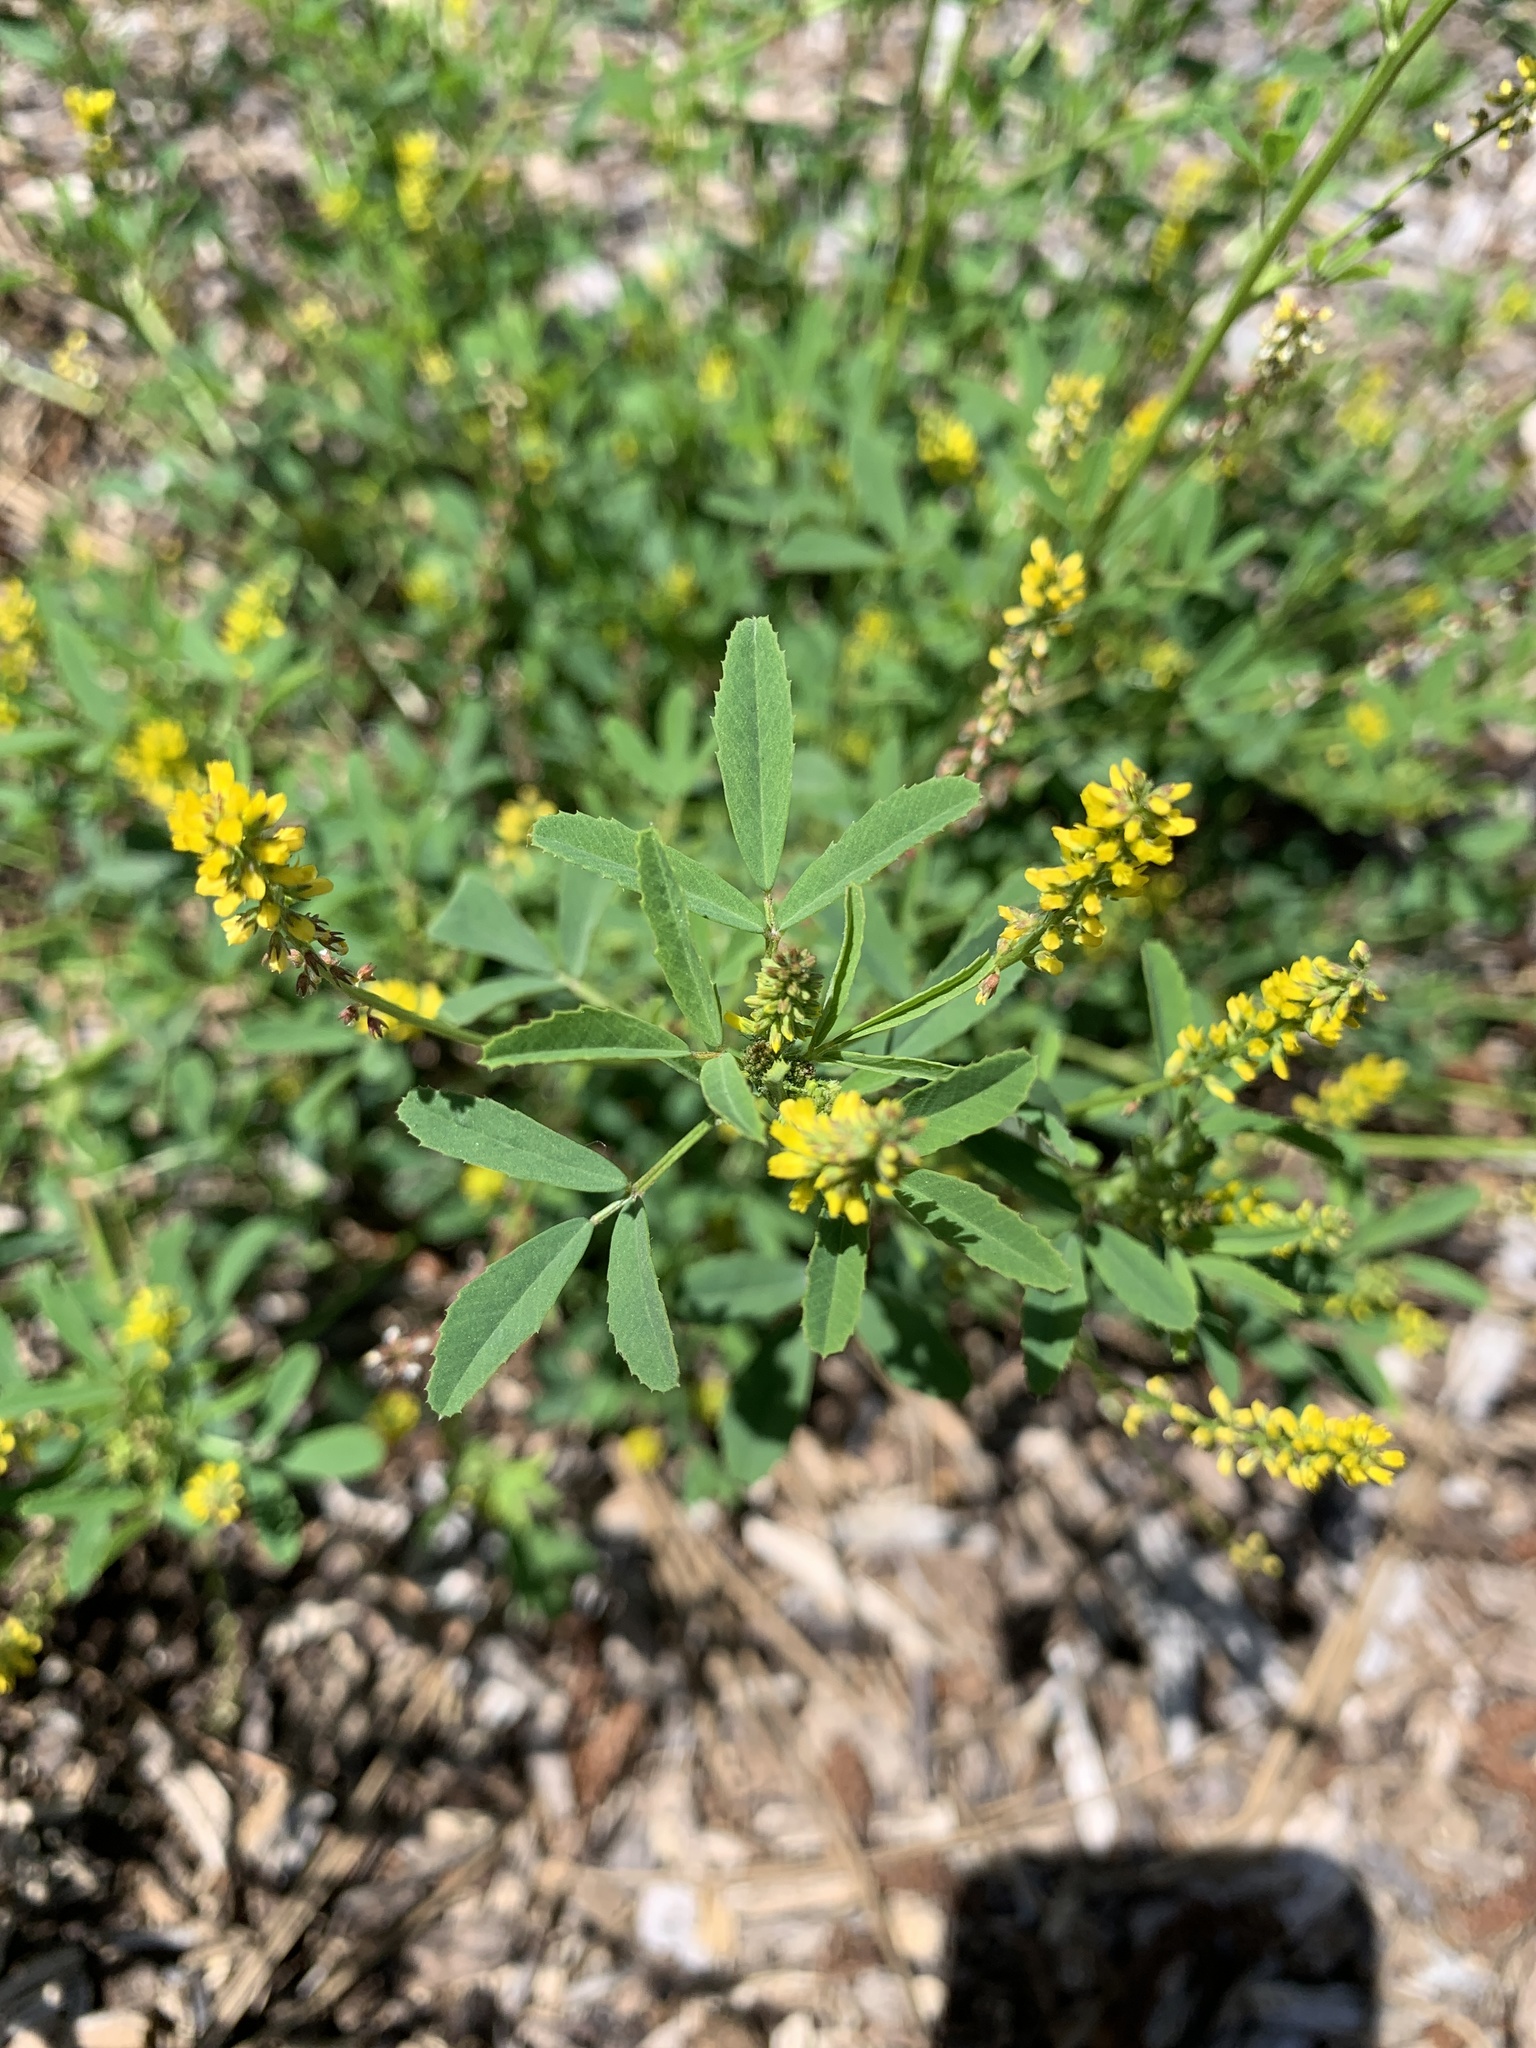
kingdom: Plantae
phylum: Tracheophyta
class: Magnoliopsida
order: Fabales
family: Fabaceae
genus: Melilotus
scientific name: Melilotus indicus
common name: Small melilot
